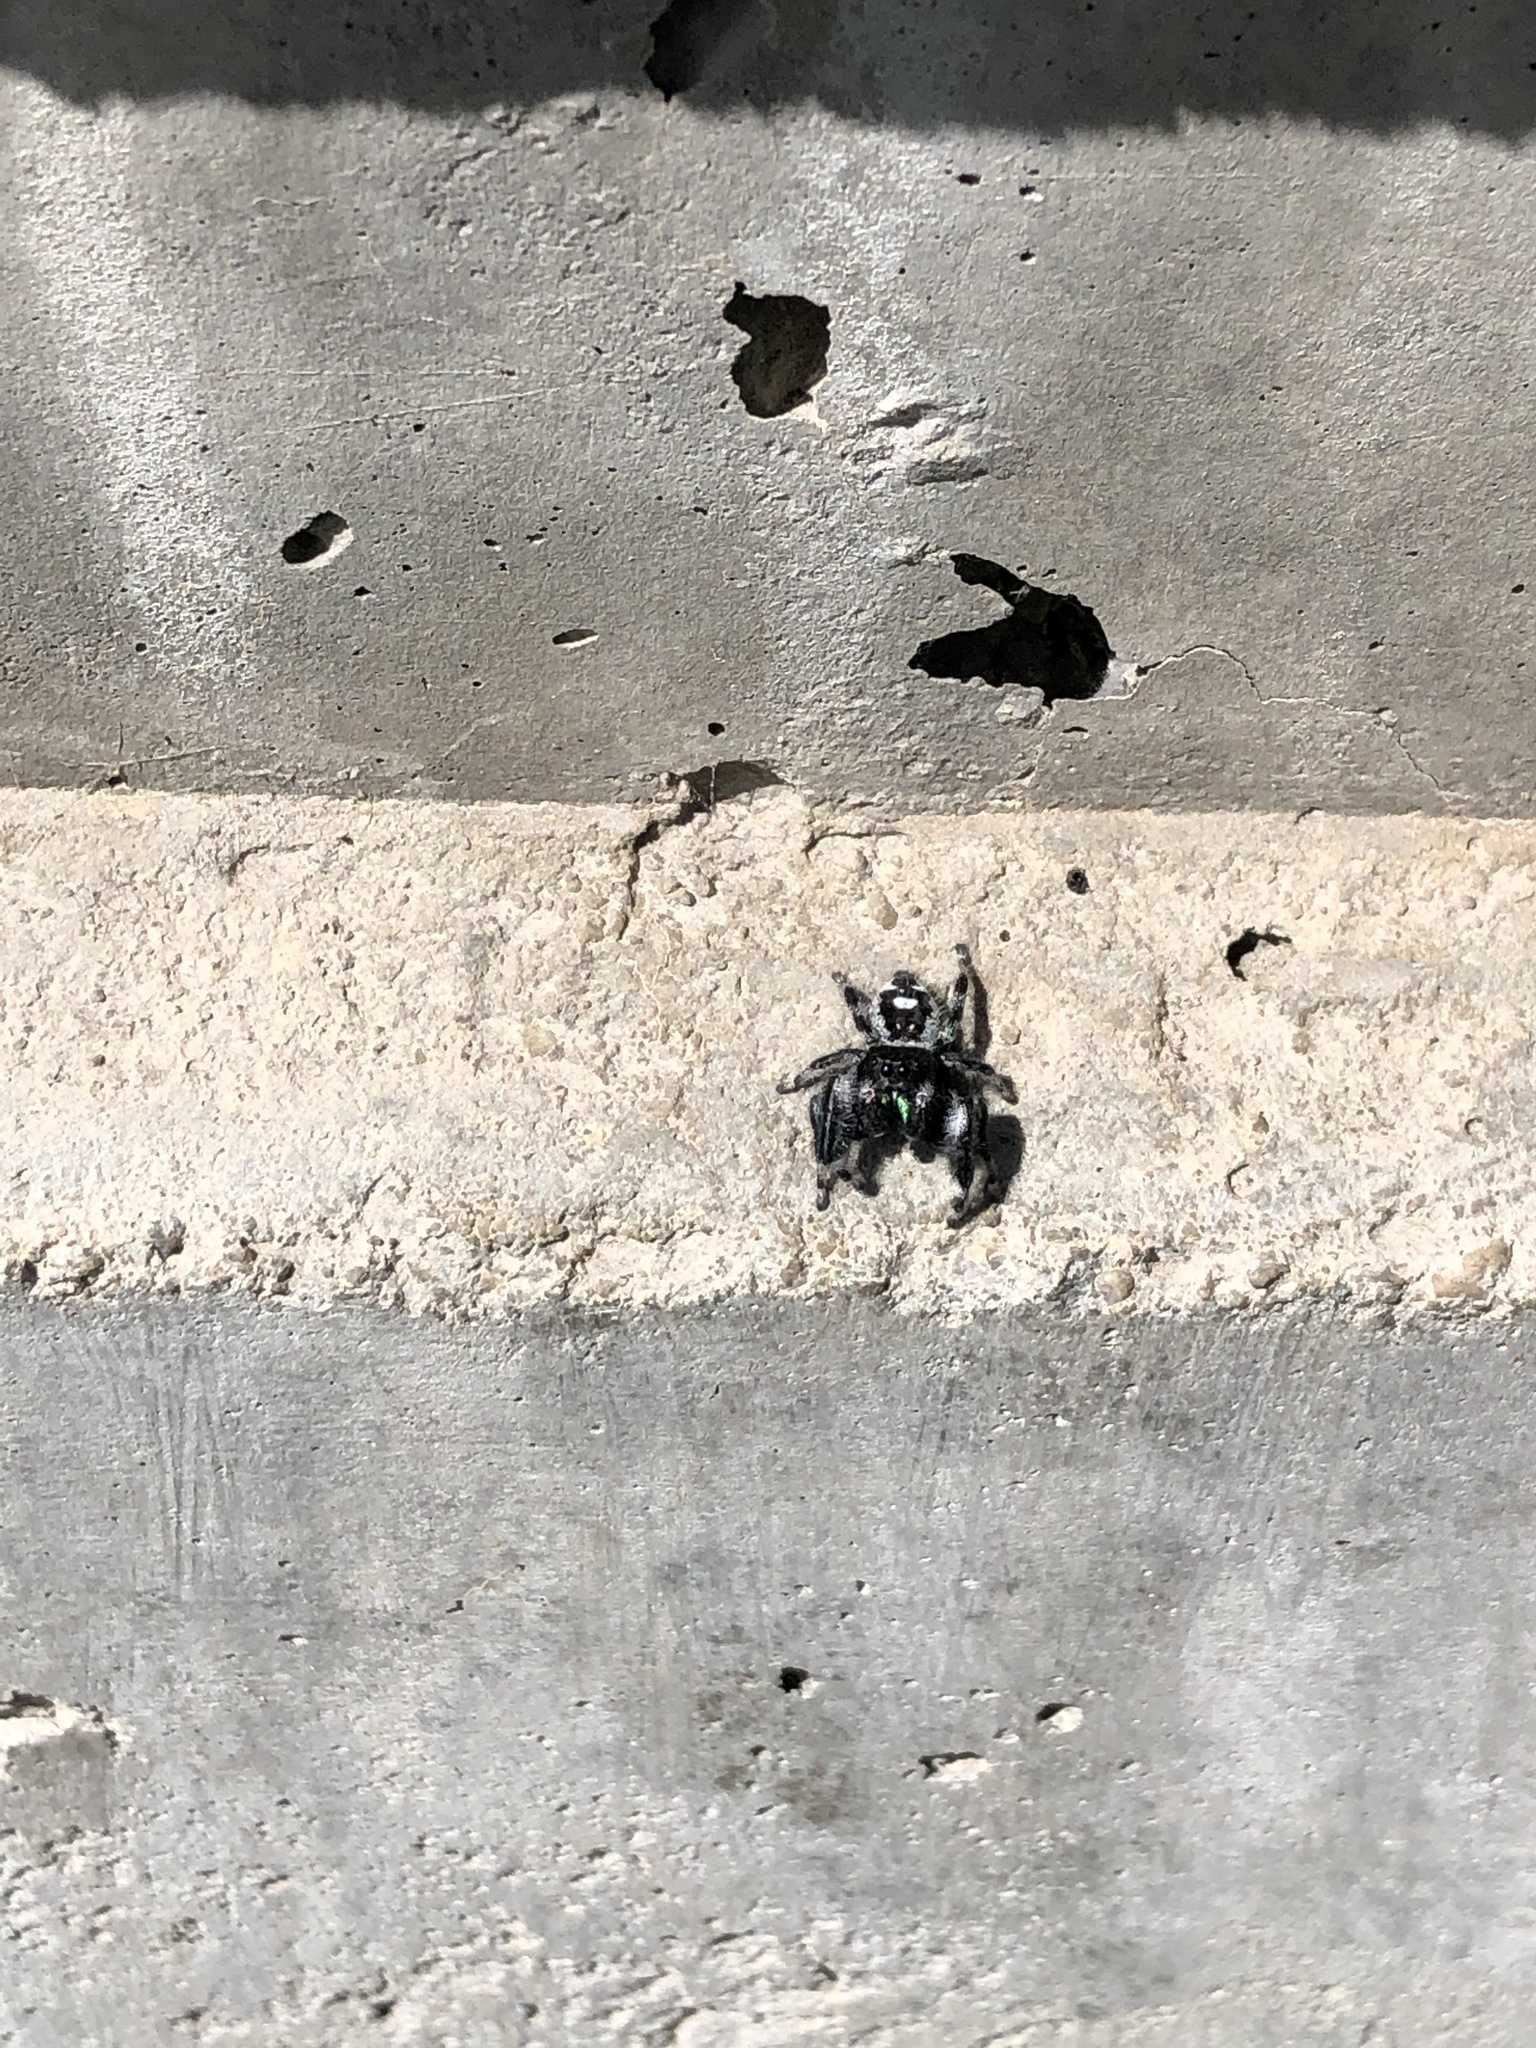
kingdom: Animalia
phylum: Arthropoda
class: Arachnida
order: Araneae
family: Salticidae
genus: Phidippus
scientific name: Phidippus audax
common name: Bold jumper
